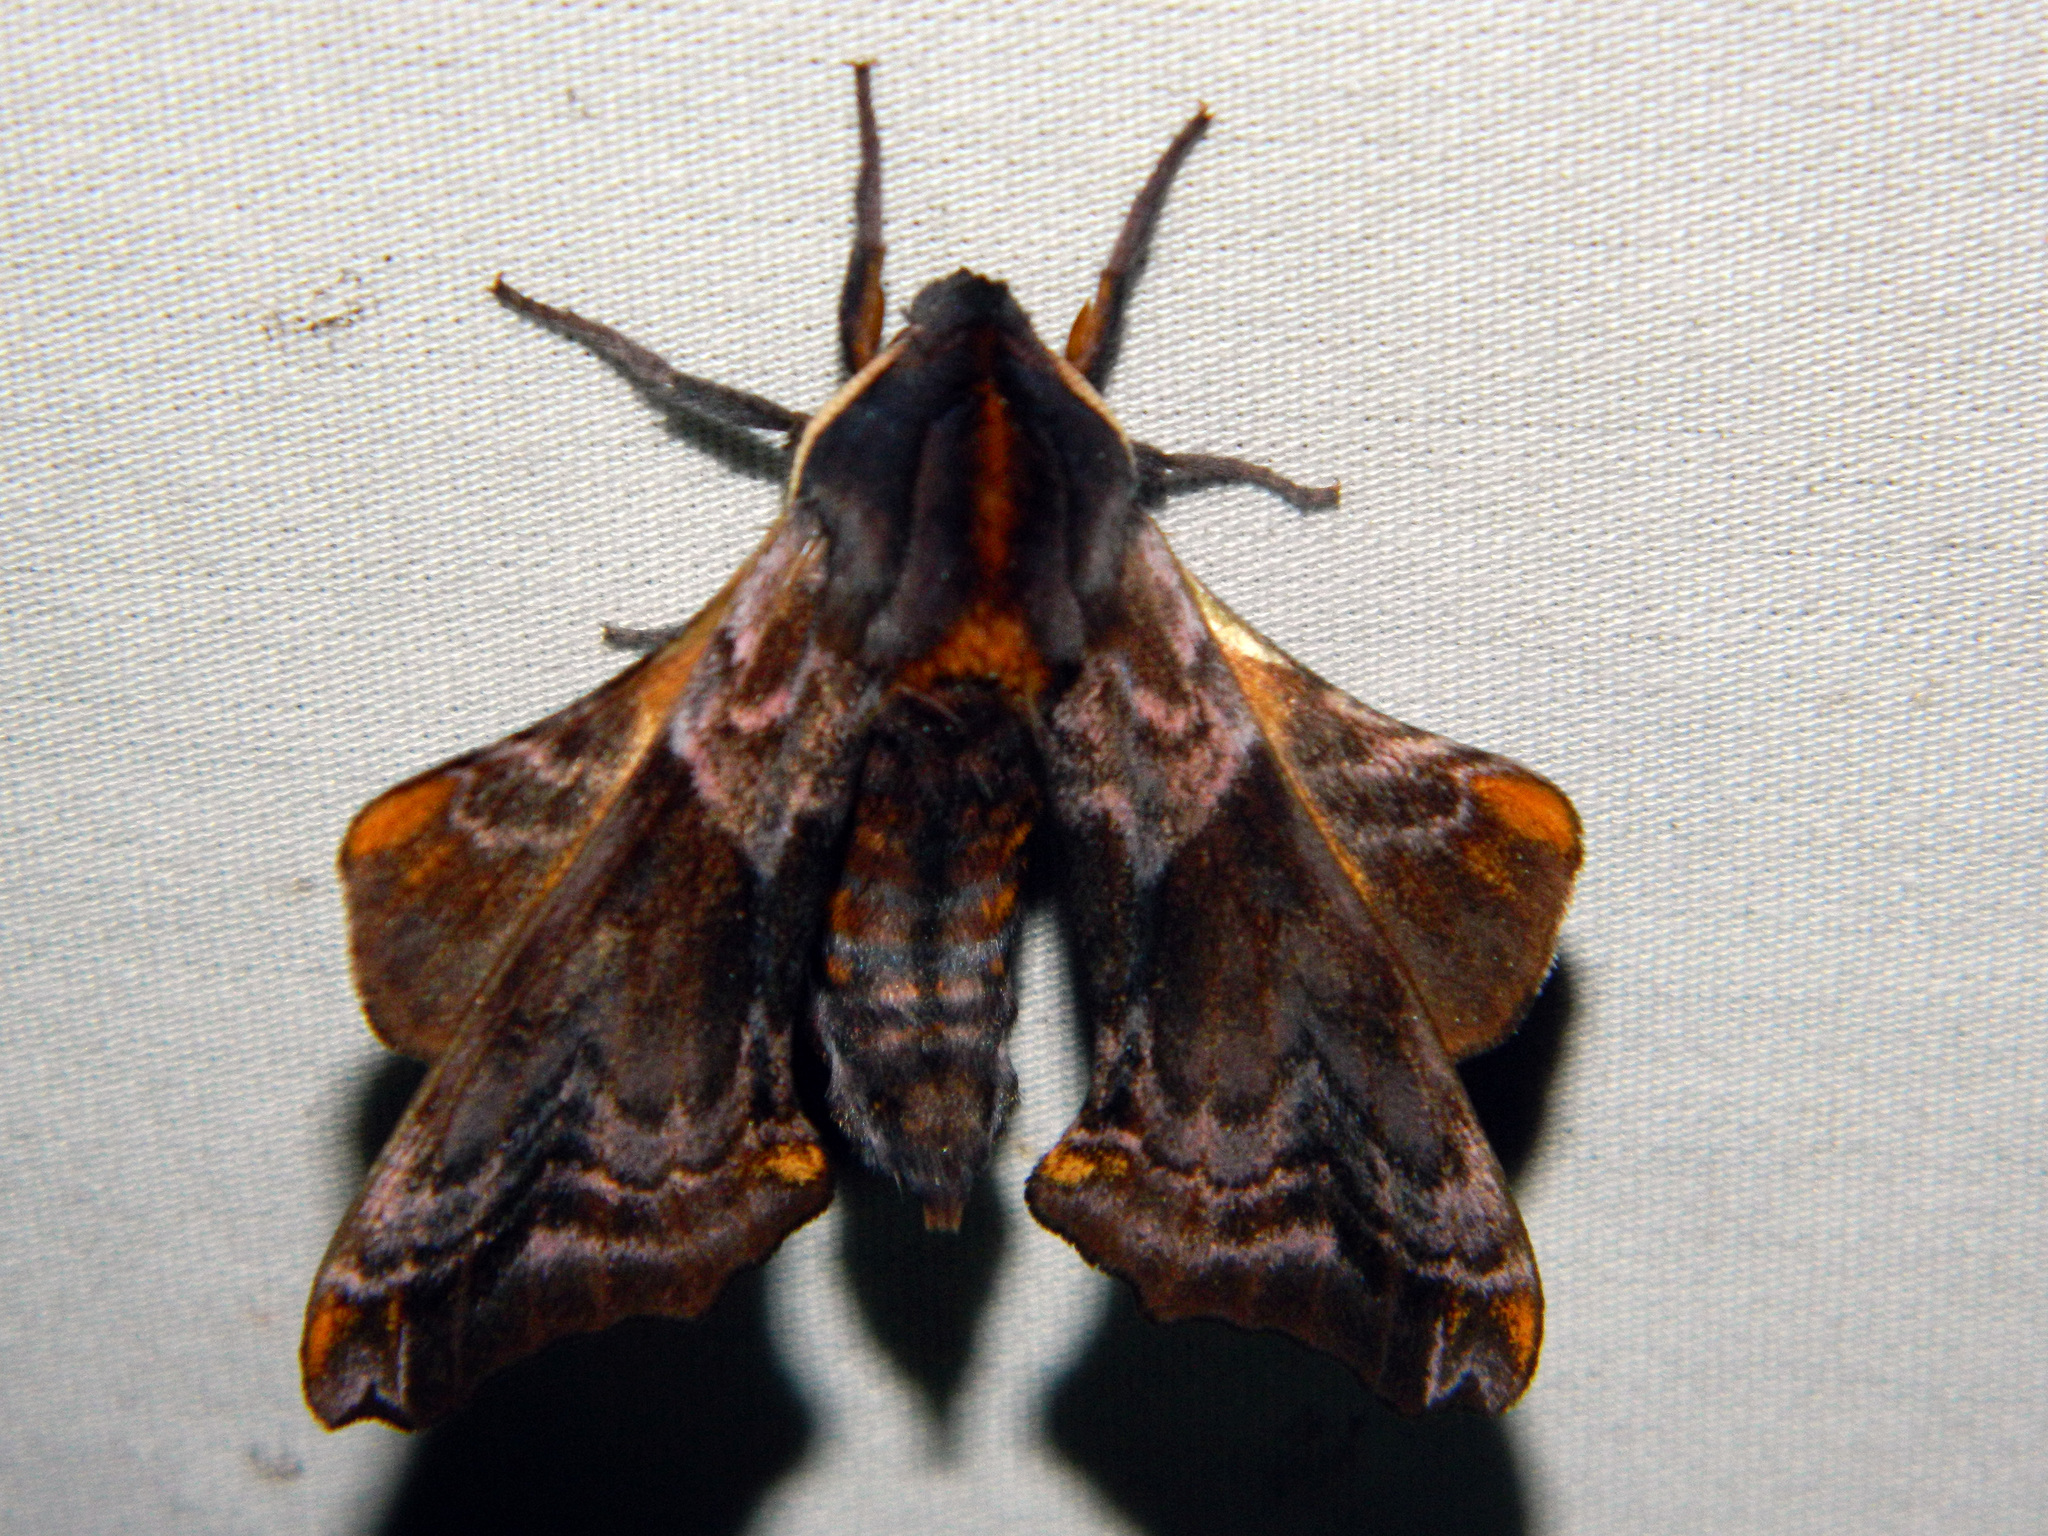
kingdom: Animalia
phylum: Arthropoda
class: Insecta
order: Lepidoptera
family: Sphingidae
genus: Paonias
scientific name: Paonias myops
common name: Small-eyed sphinx
